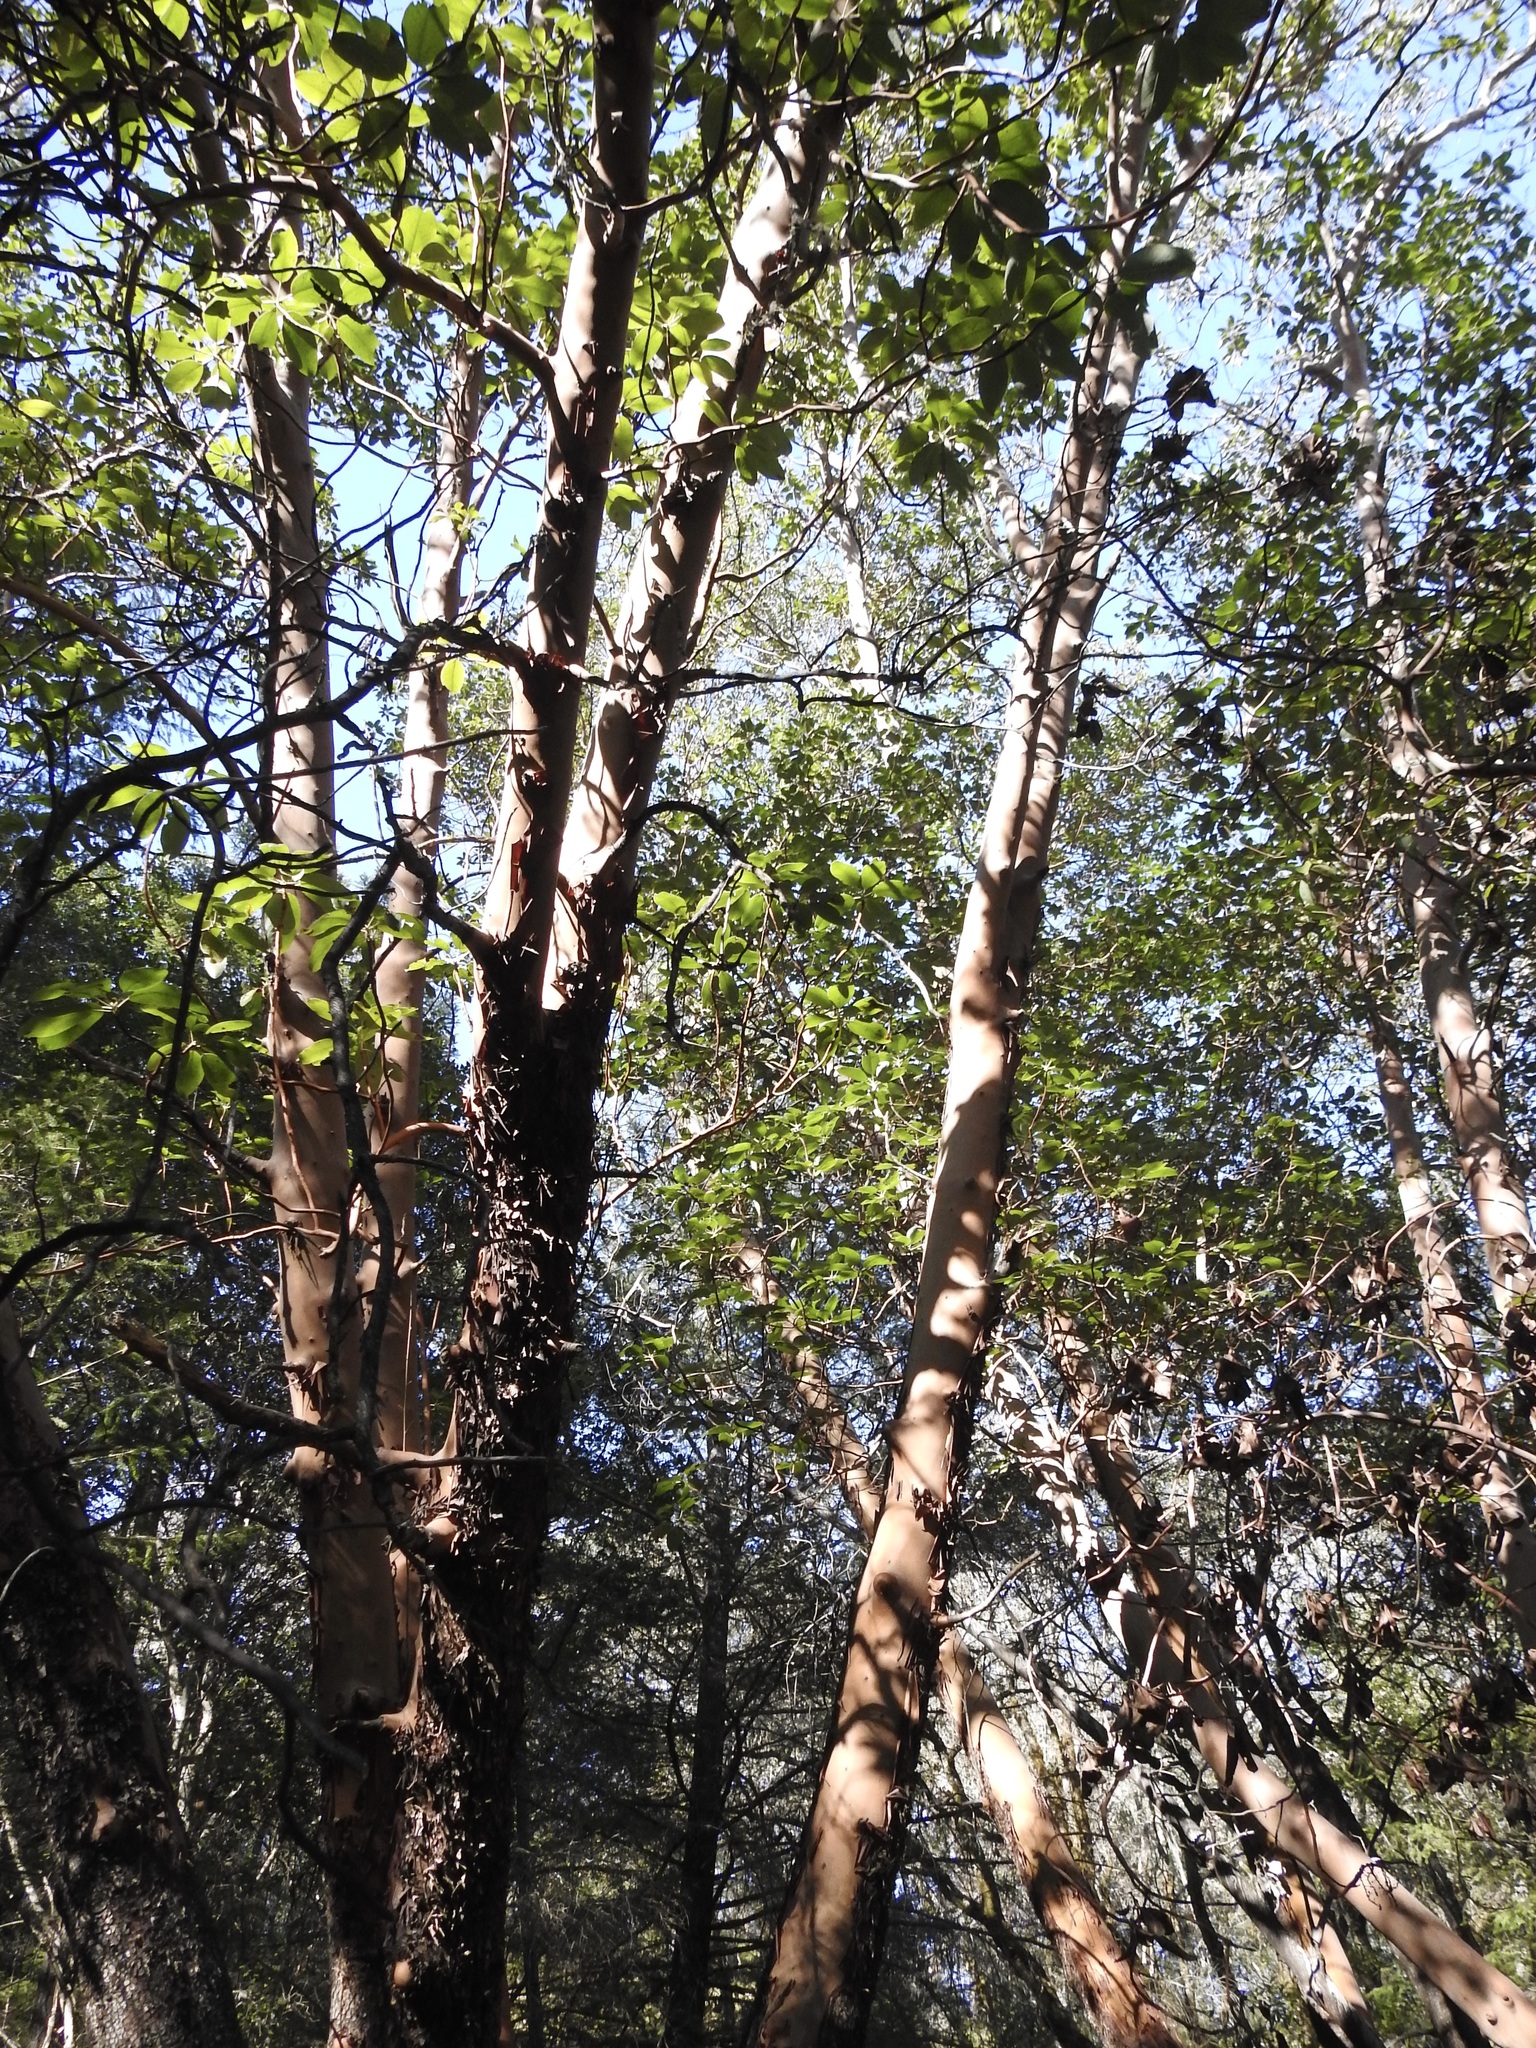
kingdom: Plantae
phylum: Tracheophyta
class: Magnoliopsida
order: Ericales
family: Ericaceae
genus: Arbutus
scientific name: Arbutus menziesii
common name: Pacific madrone
